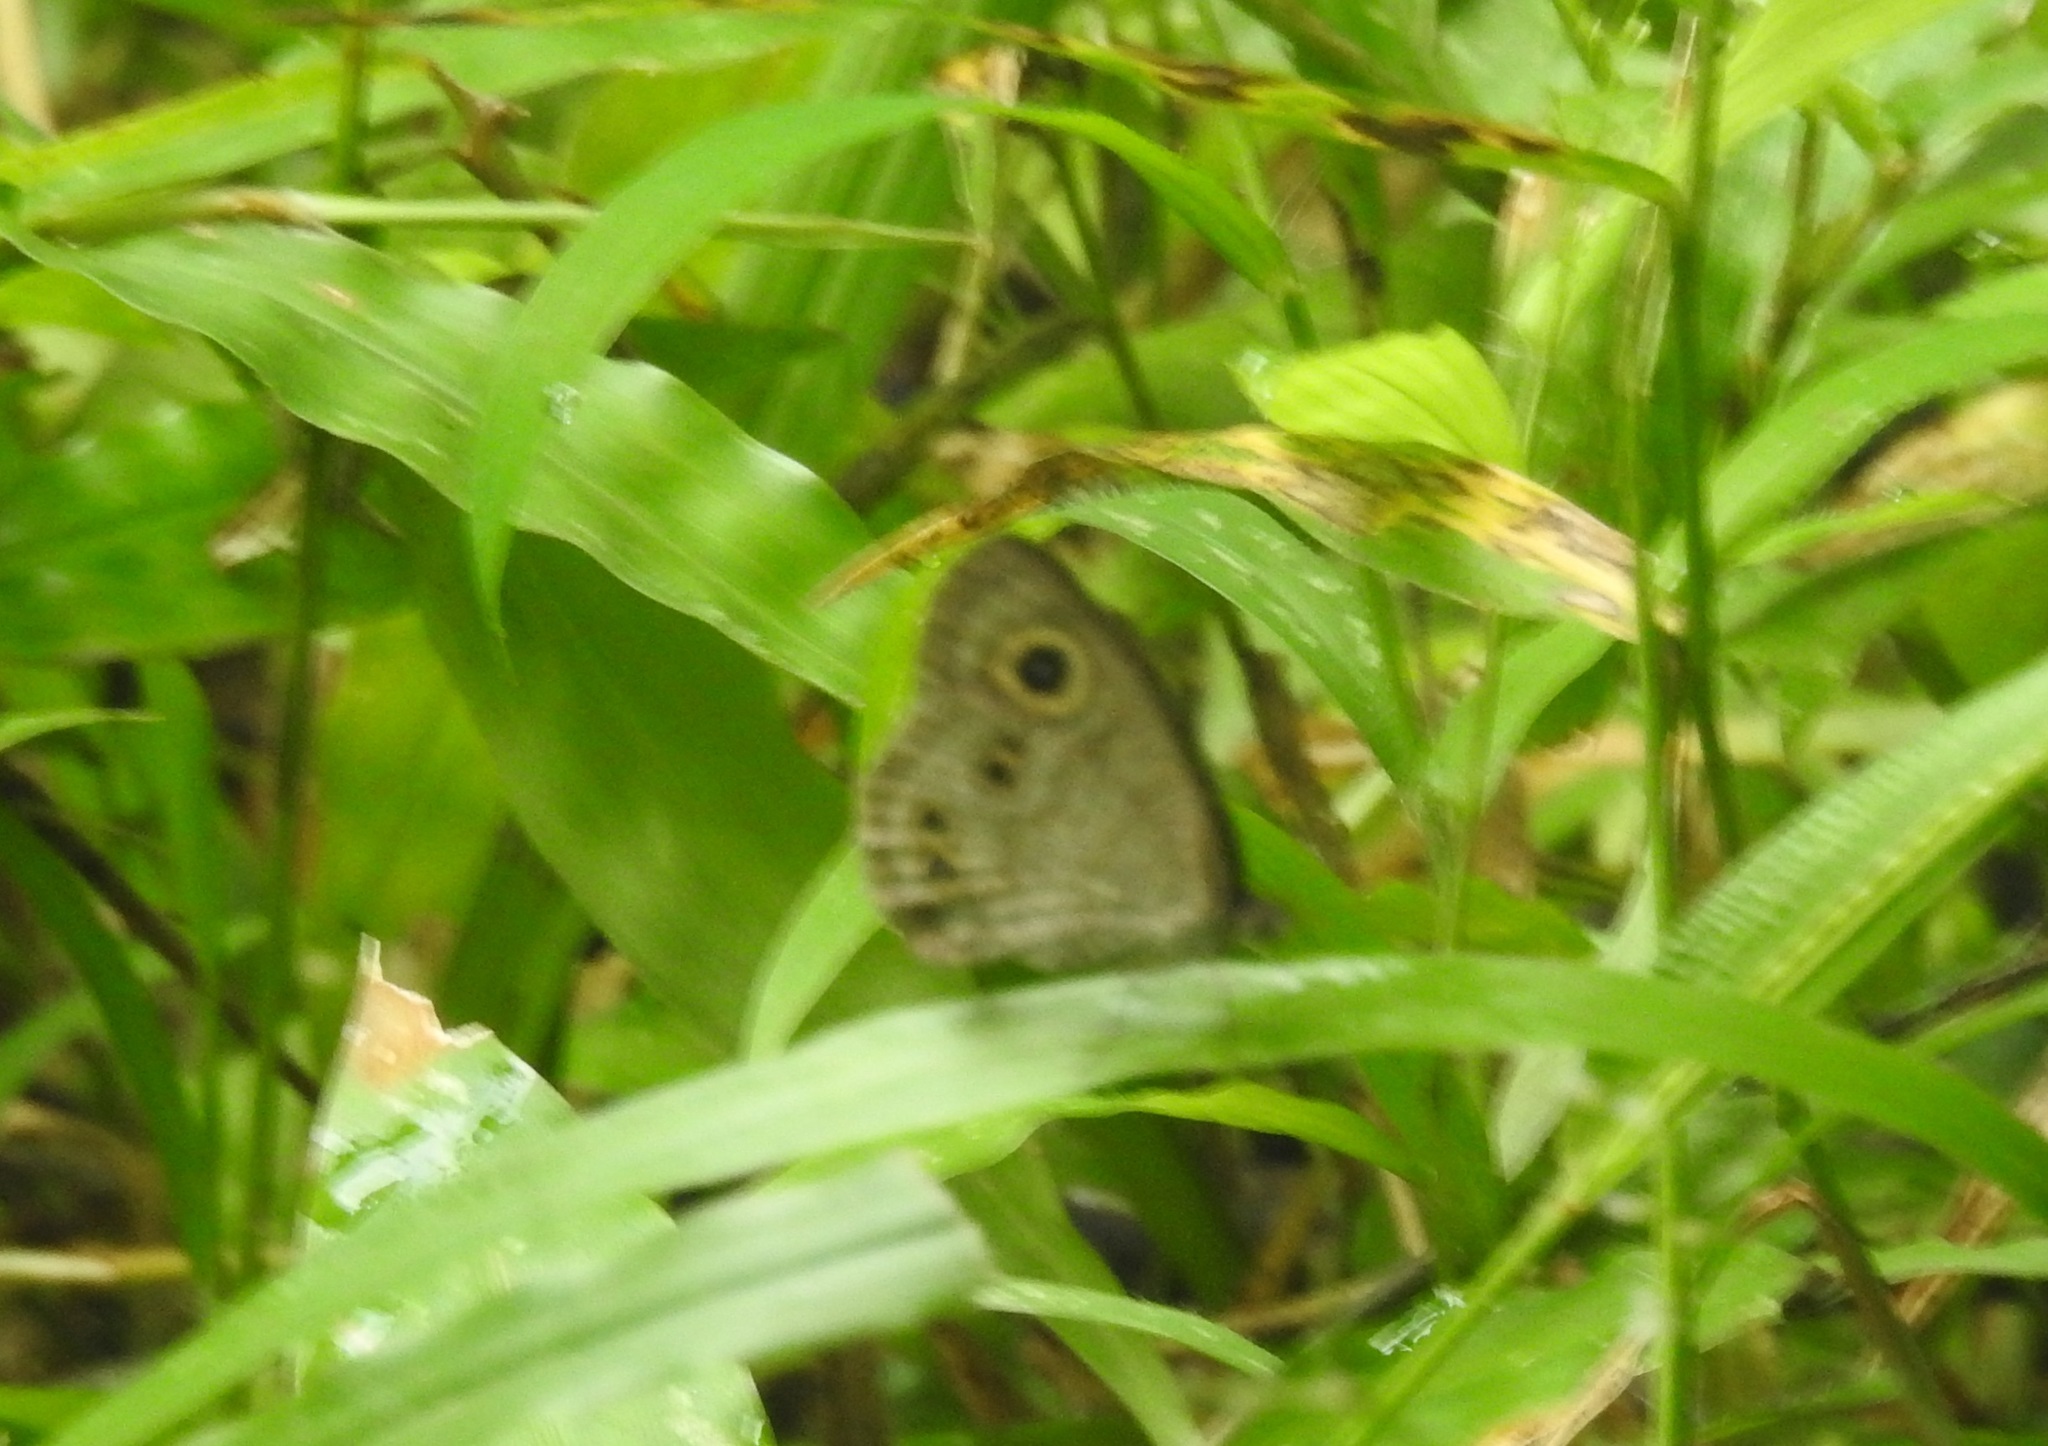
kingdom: Animalia
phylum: Arthropoda
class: Insecta
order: Lepidoptera
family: Nymphalidae
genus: Ypthima
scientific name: Ypthima baldus
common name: Common five-ring
